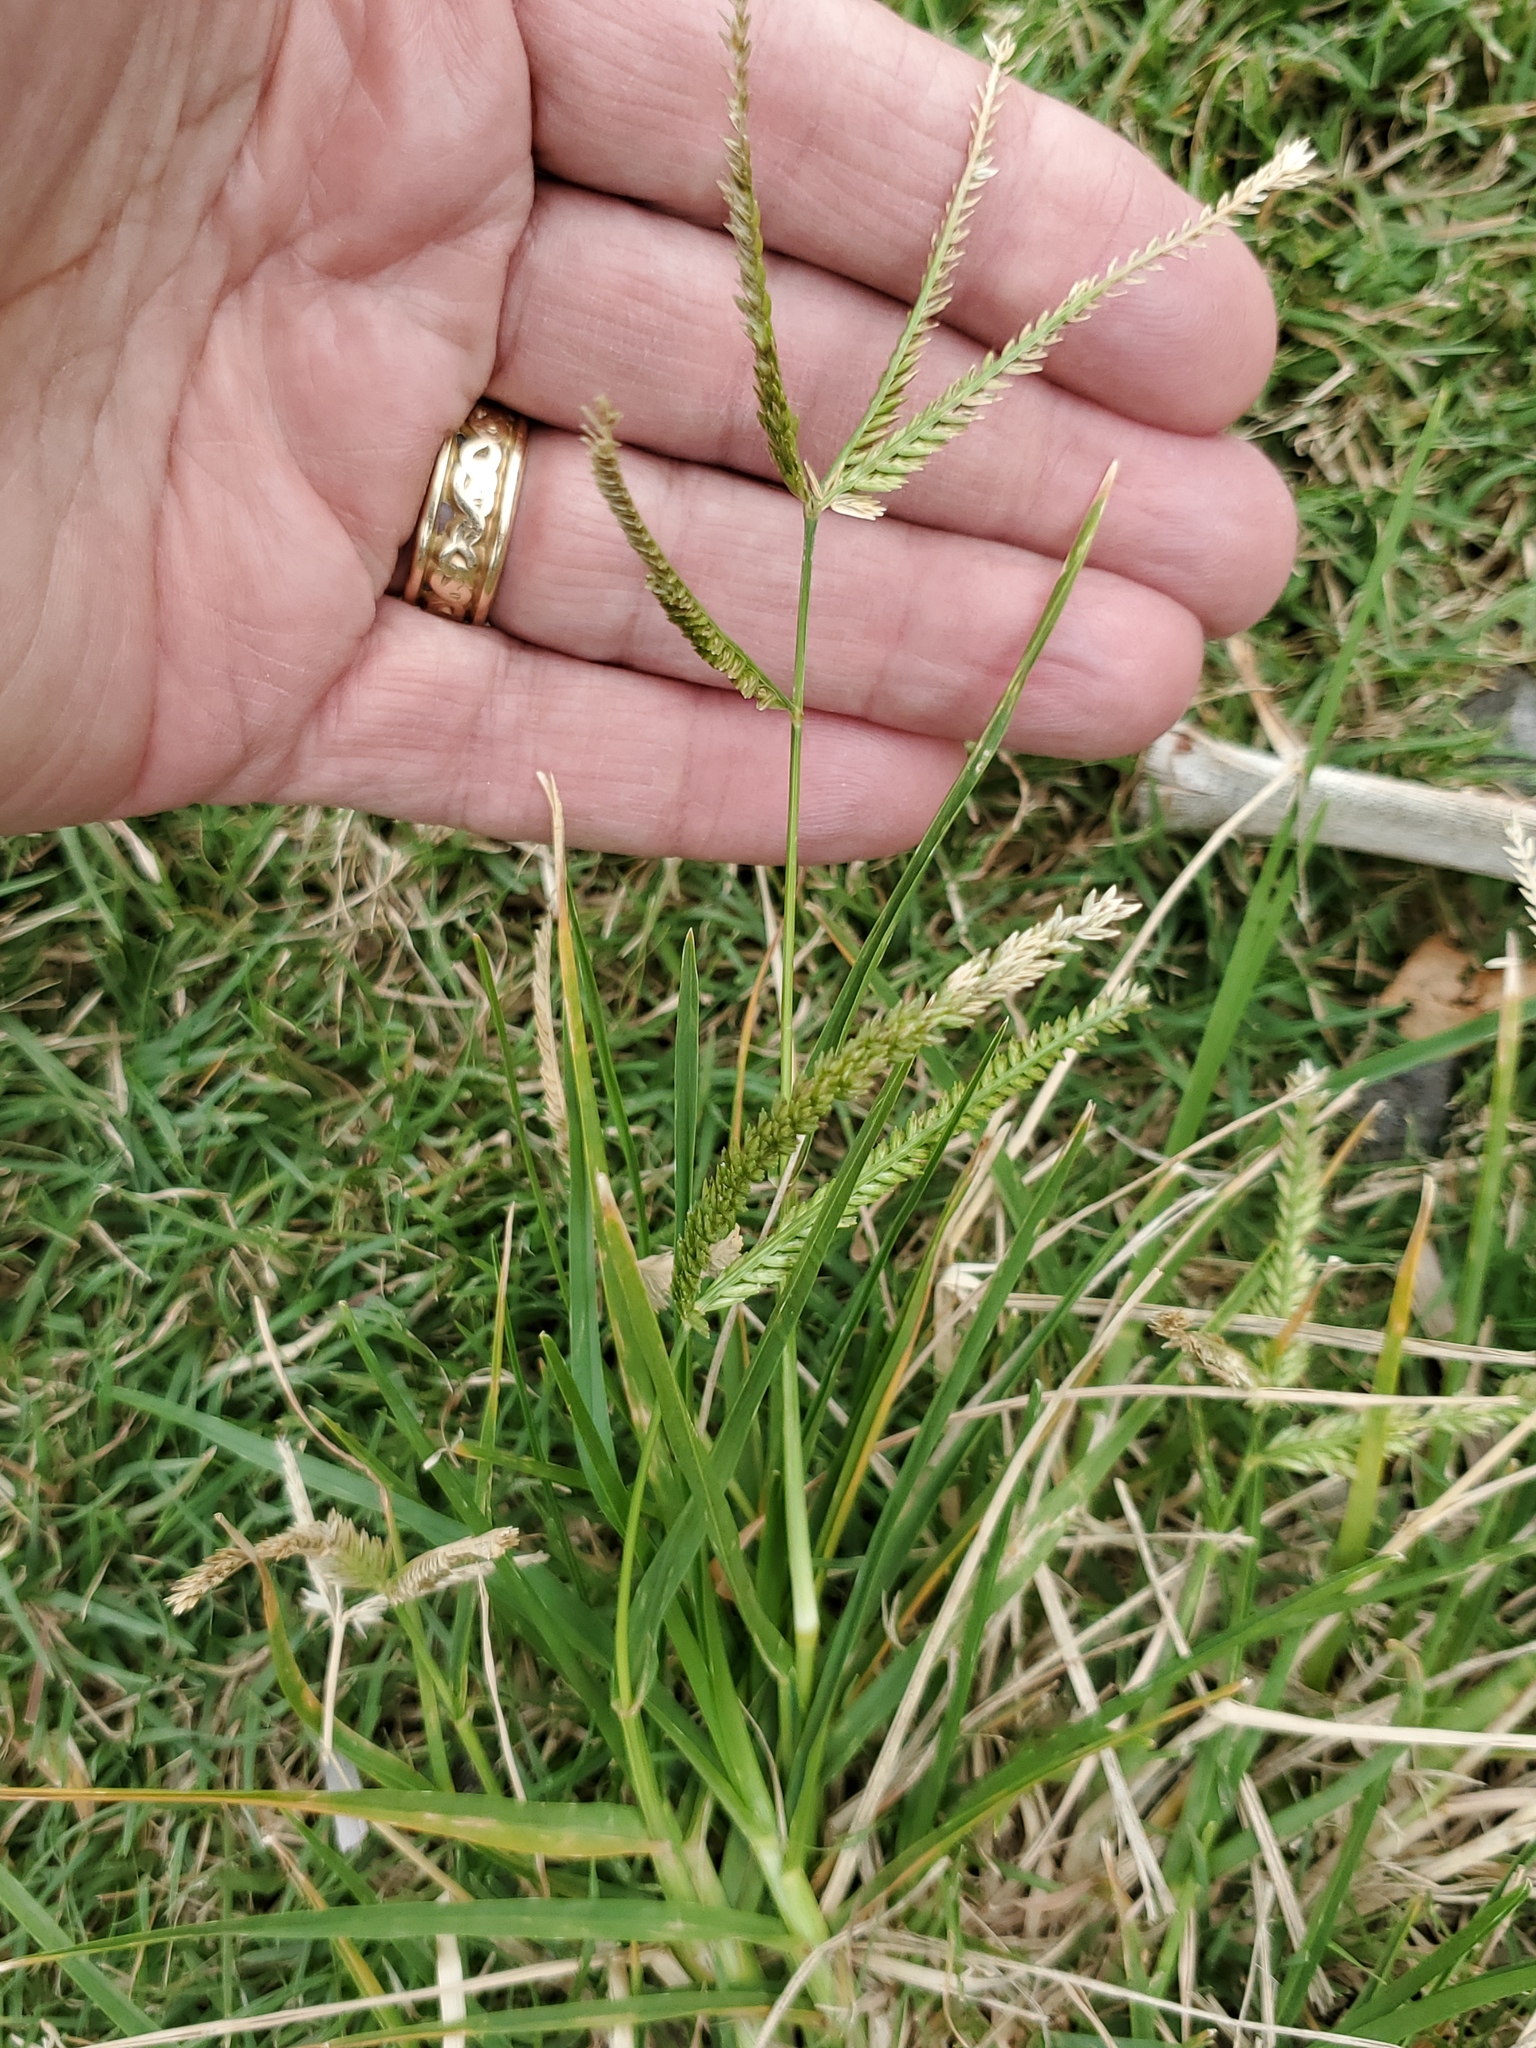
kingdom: Plantae
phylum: Tracheophyta
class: Liliopsida
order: Poales
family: Poaceae
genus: Eleusine
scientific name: Eleusine indica
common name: Yard-grass
